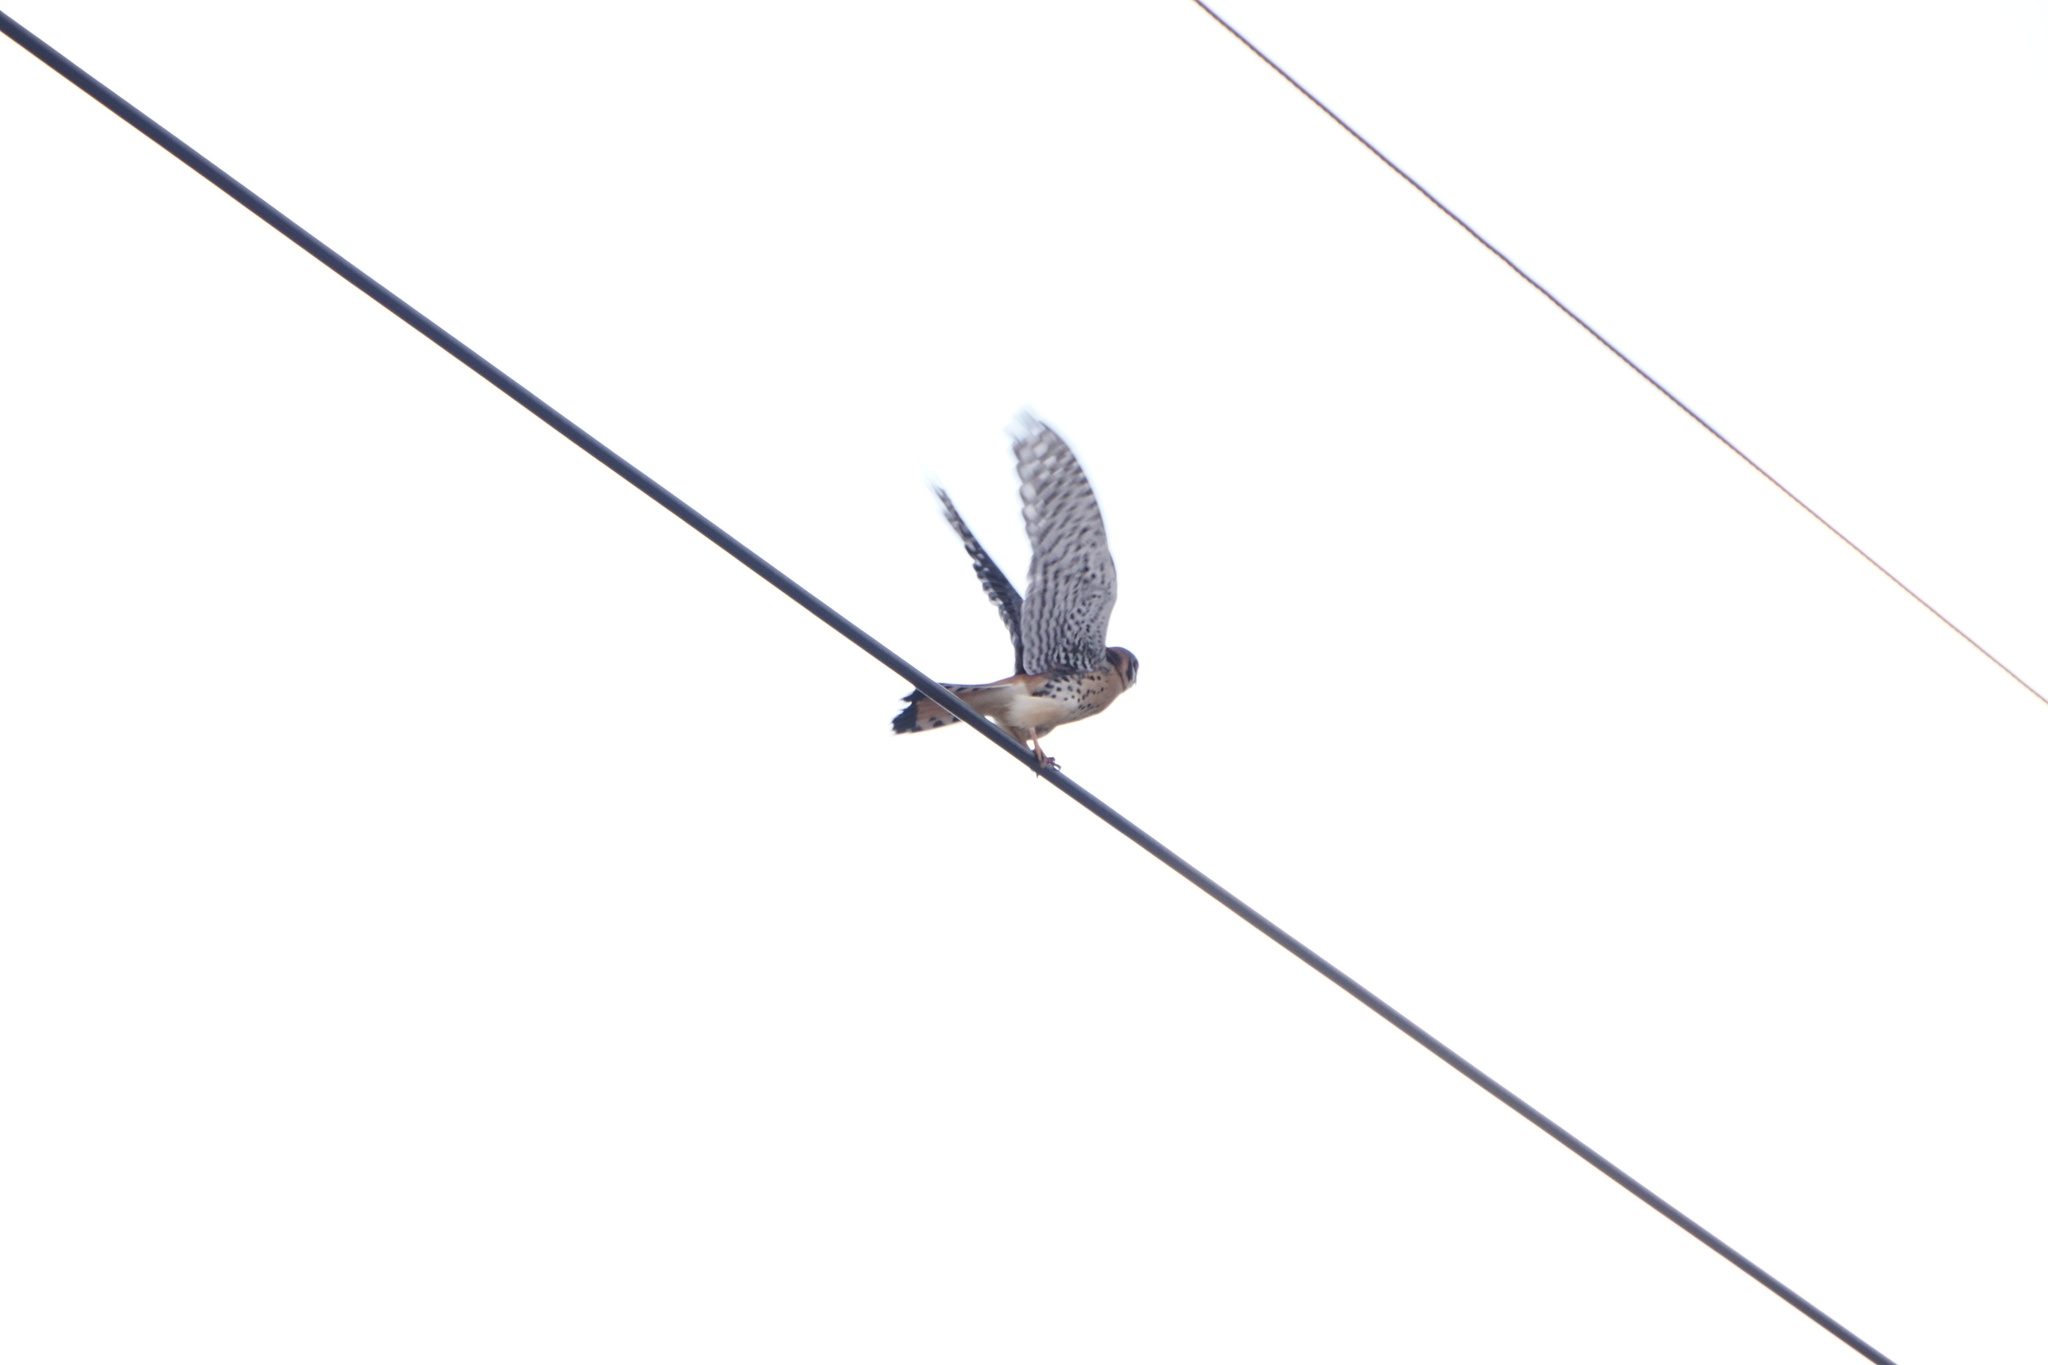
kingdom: Animalia
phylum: Chordata
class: Aves
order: Falconiformes
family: Falconidae
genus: Falco
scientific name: Falco sparverius
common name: American kestrel
